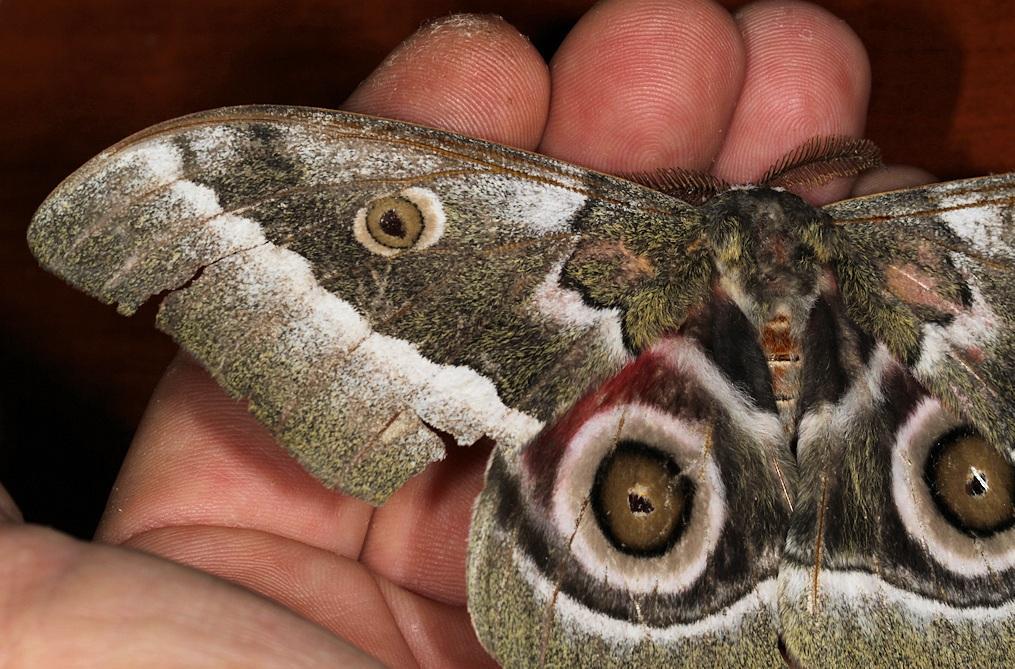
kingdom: Animalia
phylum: Arthropoda
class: Insecta
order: Lepidoptera
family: Saturniidae
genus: Gonimbrasia
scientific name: Gonimbrasia zambesina
